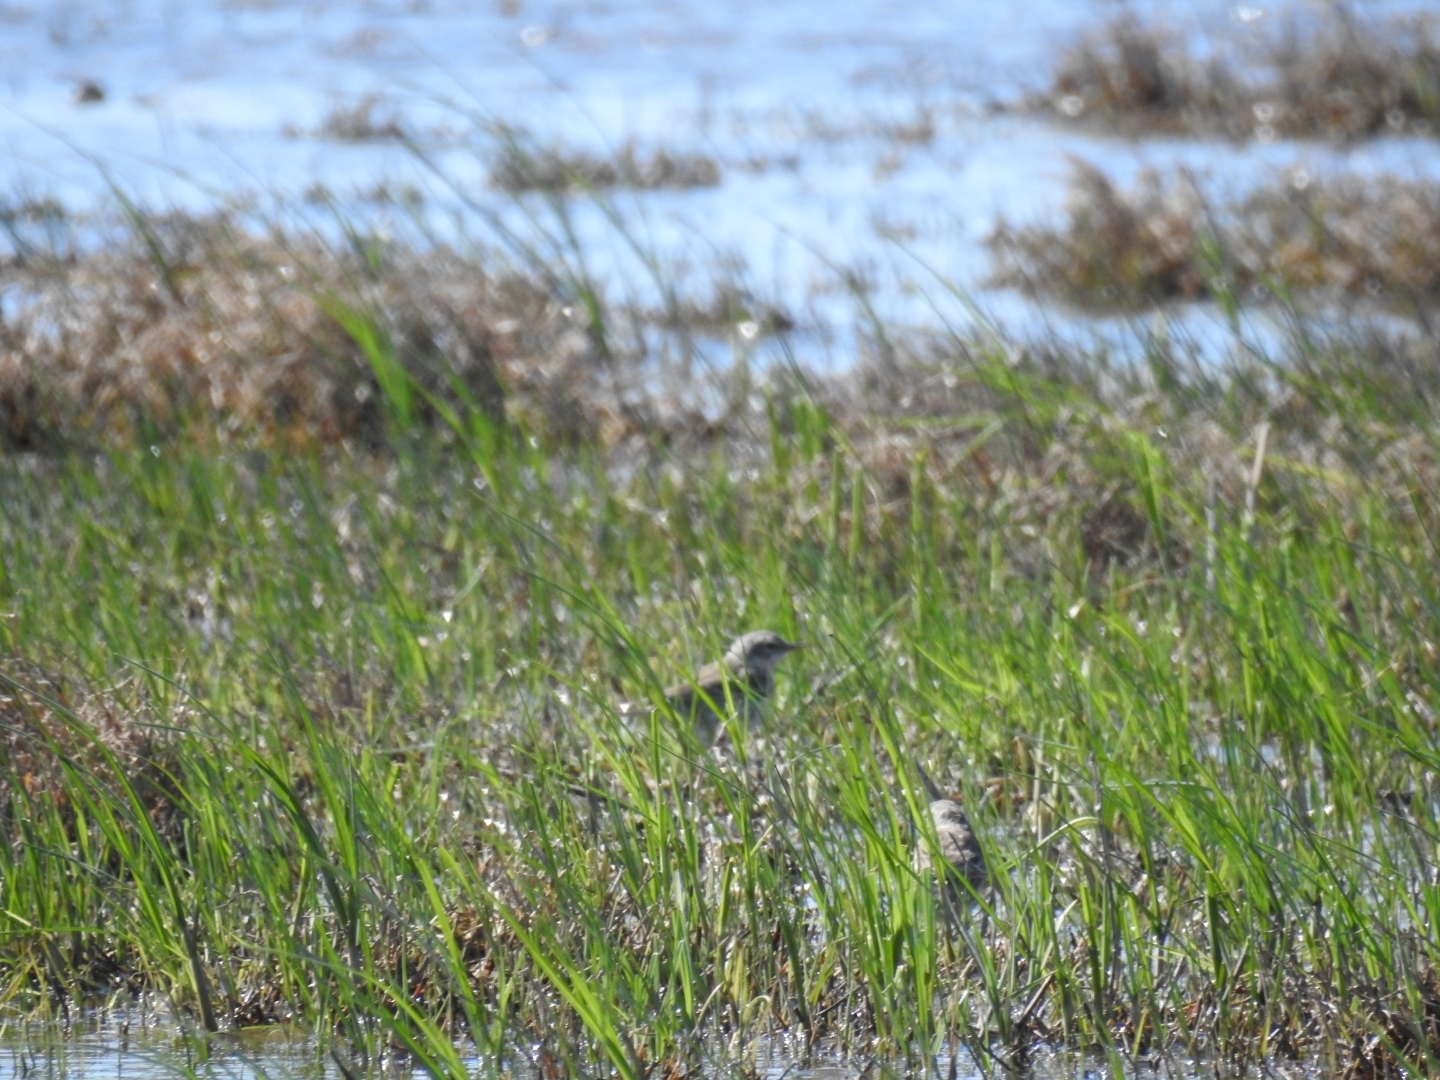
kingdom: Animalia
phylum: Chordata
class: Aves
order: Passeriformes
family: Motacillidae
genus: Anthus
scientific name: Anthus spinoletta
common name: Water pipit
